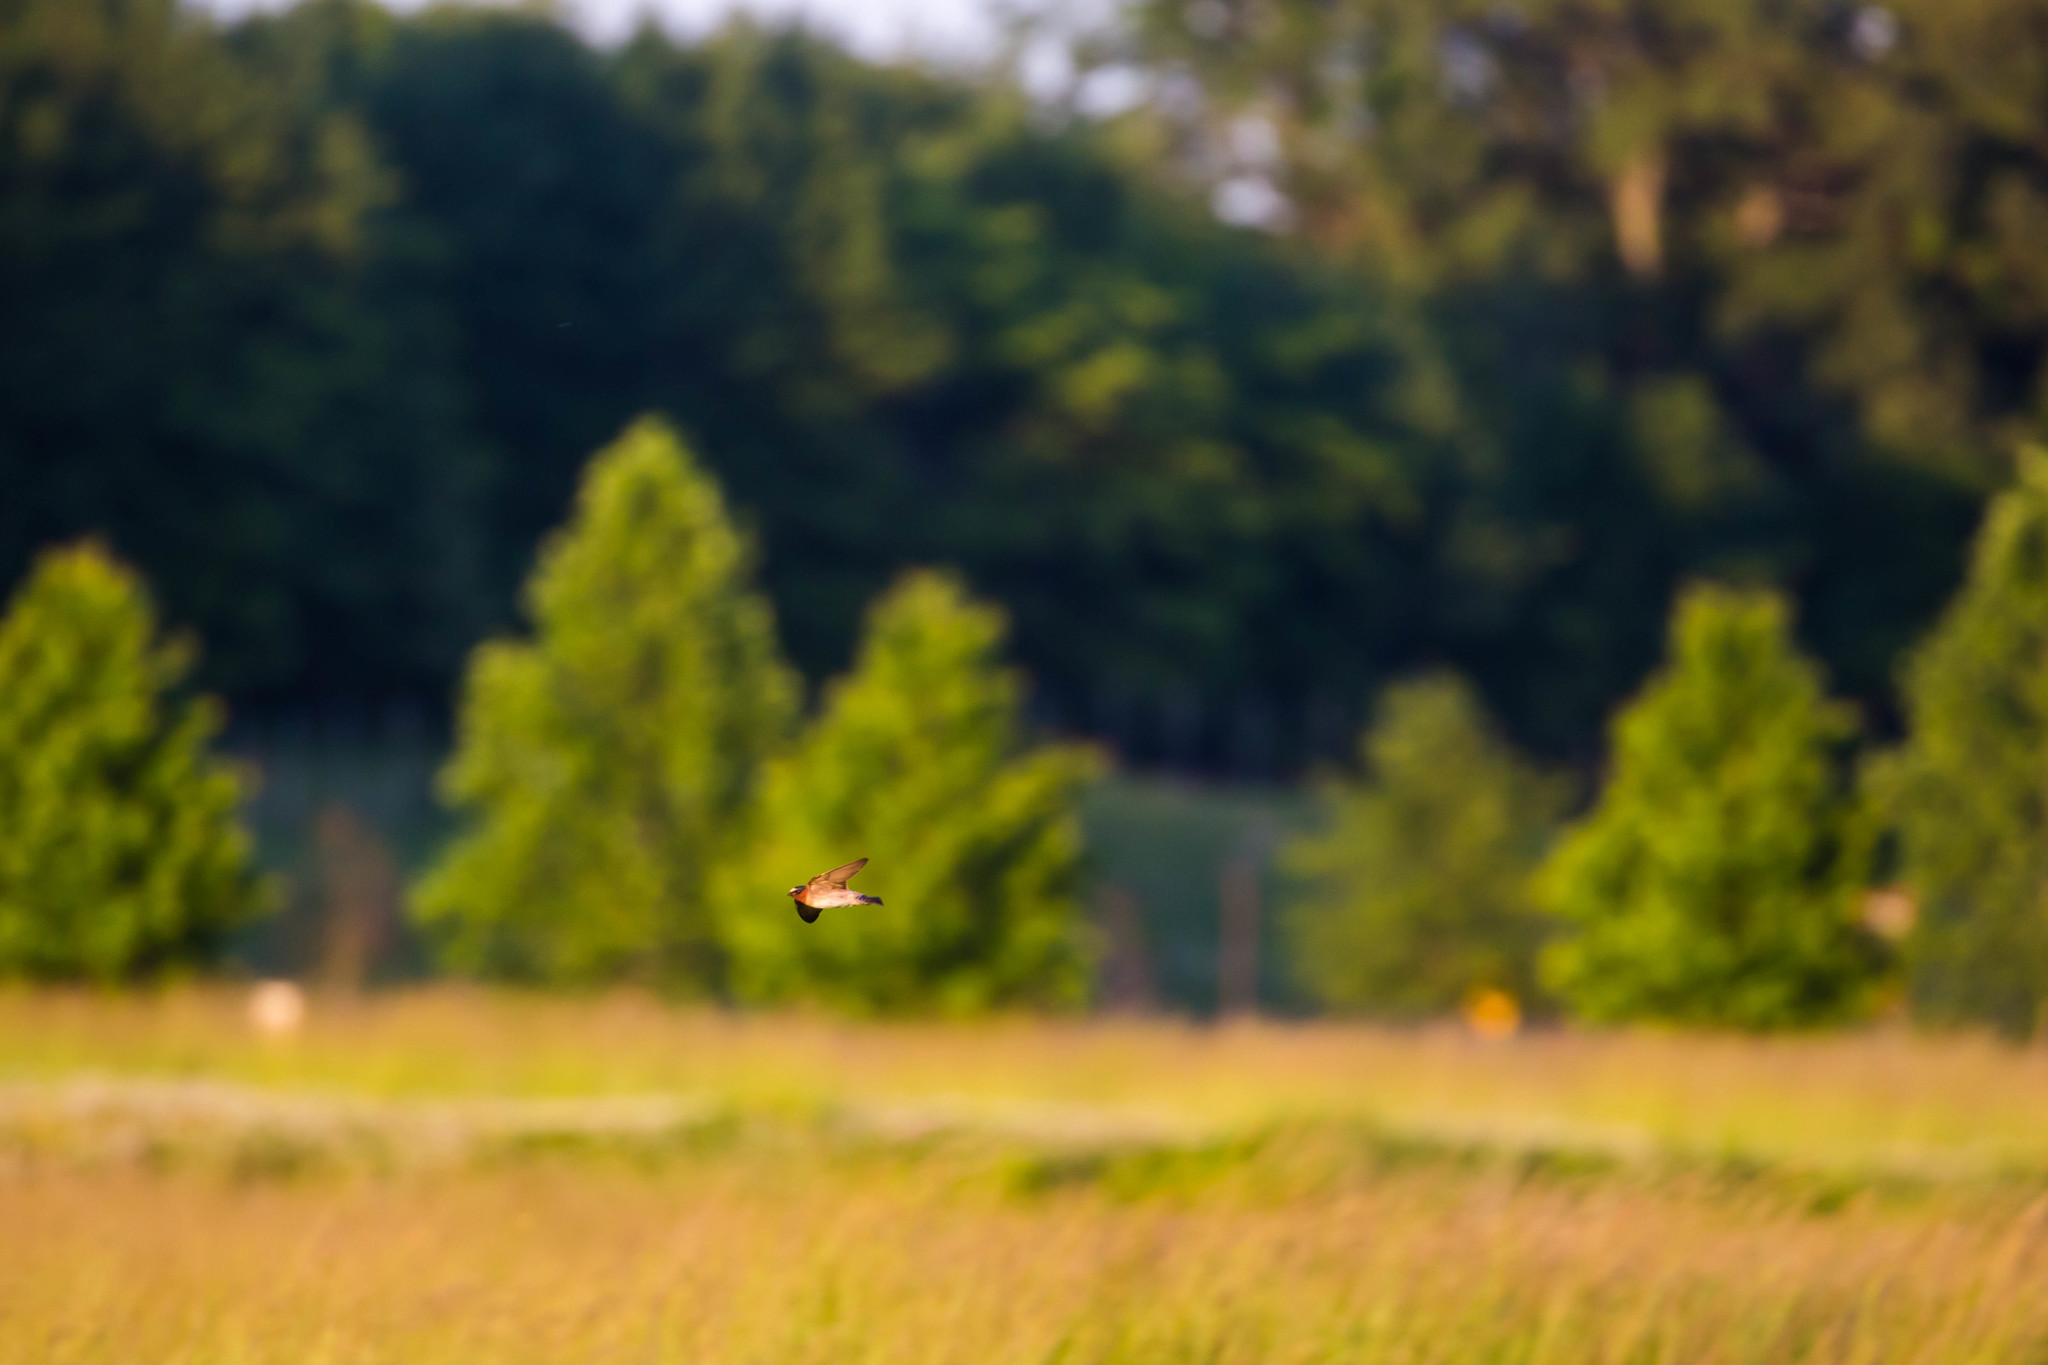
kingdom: Animalia
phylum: Chordata
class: Aves
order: Passeriformes
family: Hirundinidae
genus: Petrochelidon
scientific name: Petrochelidon pyrrhonota
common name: American cliff swallow
